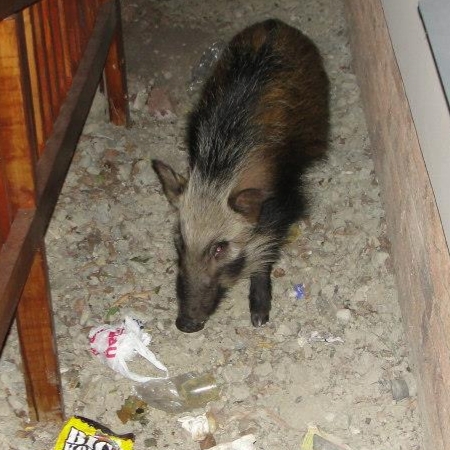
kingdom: Animalia
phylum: Chordata
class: Mammalia
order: Artiodactyla
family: Suidae
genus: Potamochoerus
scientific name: Potamochoerus larvatus
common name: Bushpig
